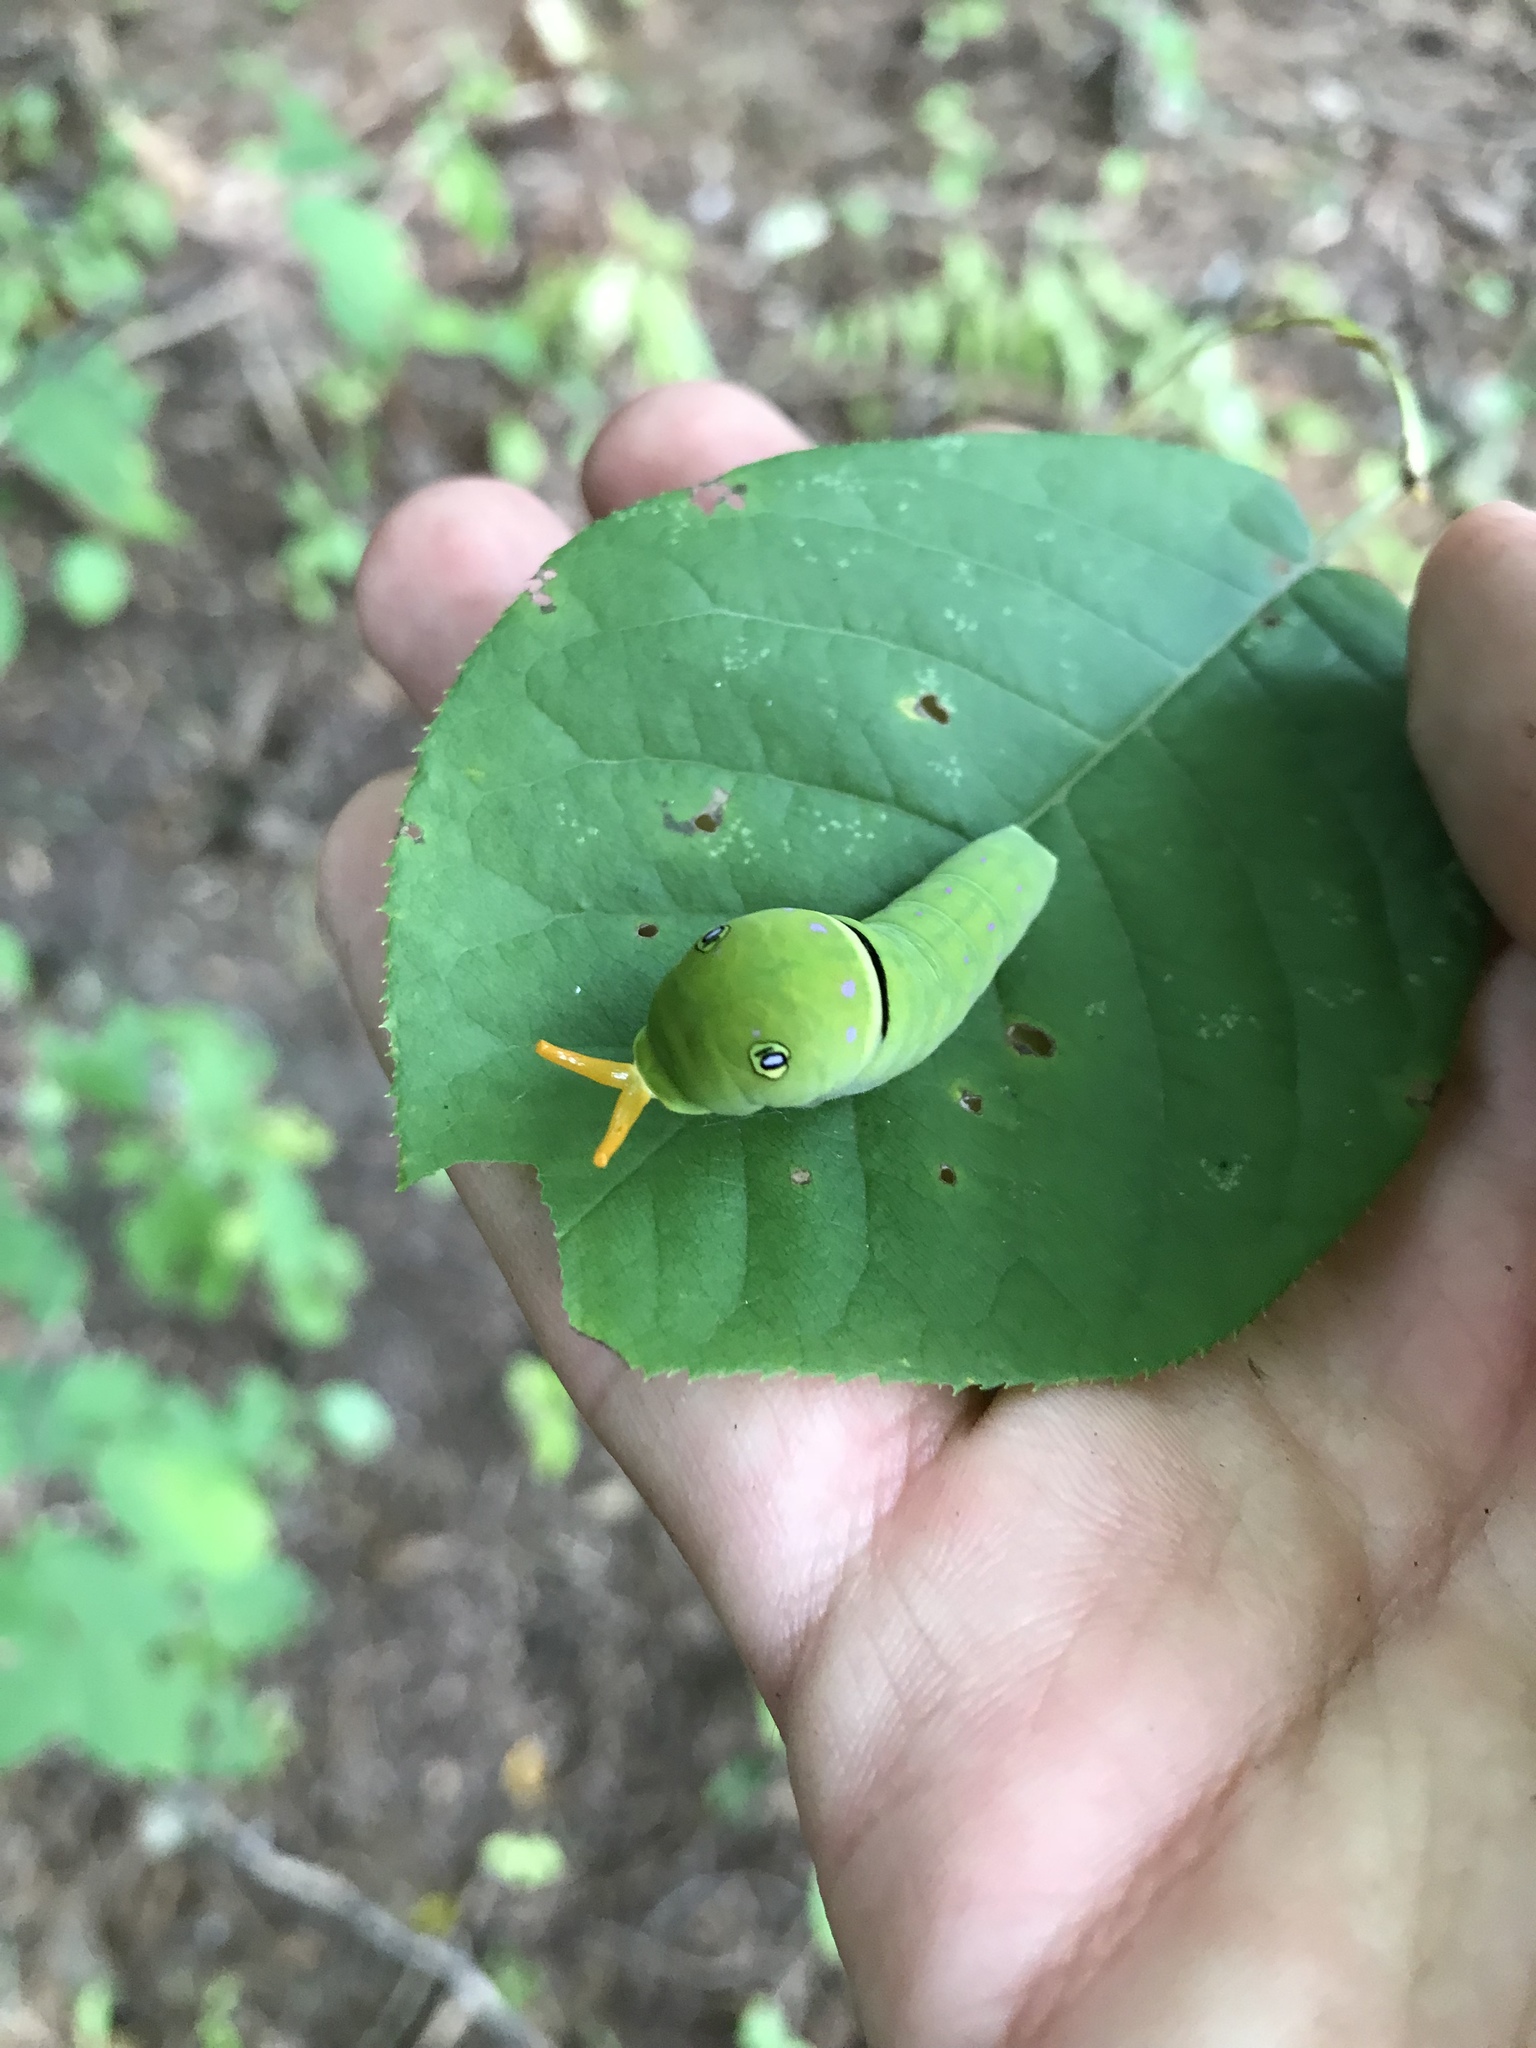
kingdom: Animalia
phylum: Arthropoda
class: Insecta
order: Lepidoptera
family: Papilionidae
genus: Papilio
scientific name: Papilio
